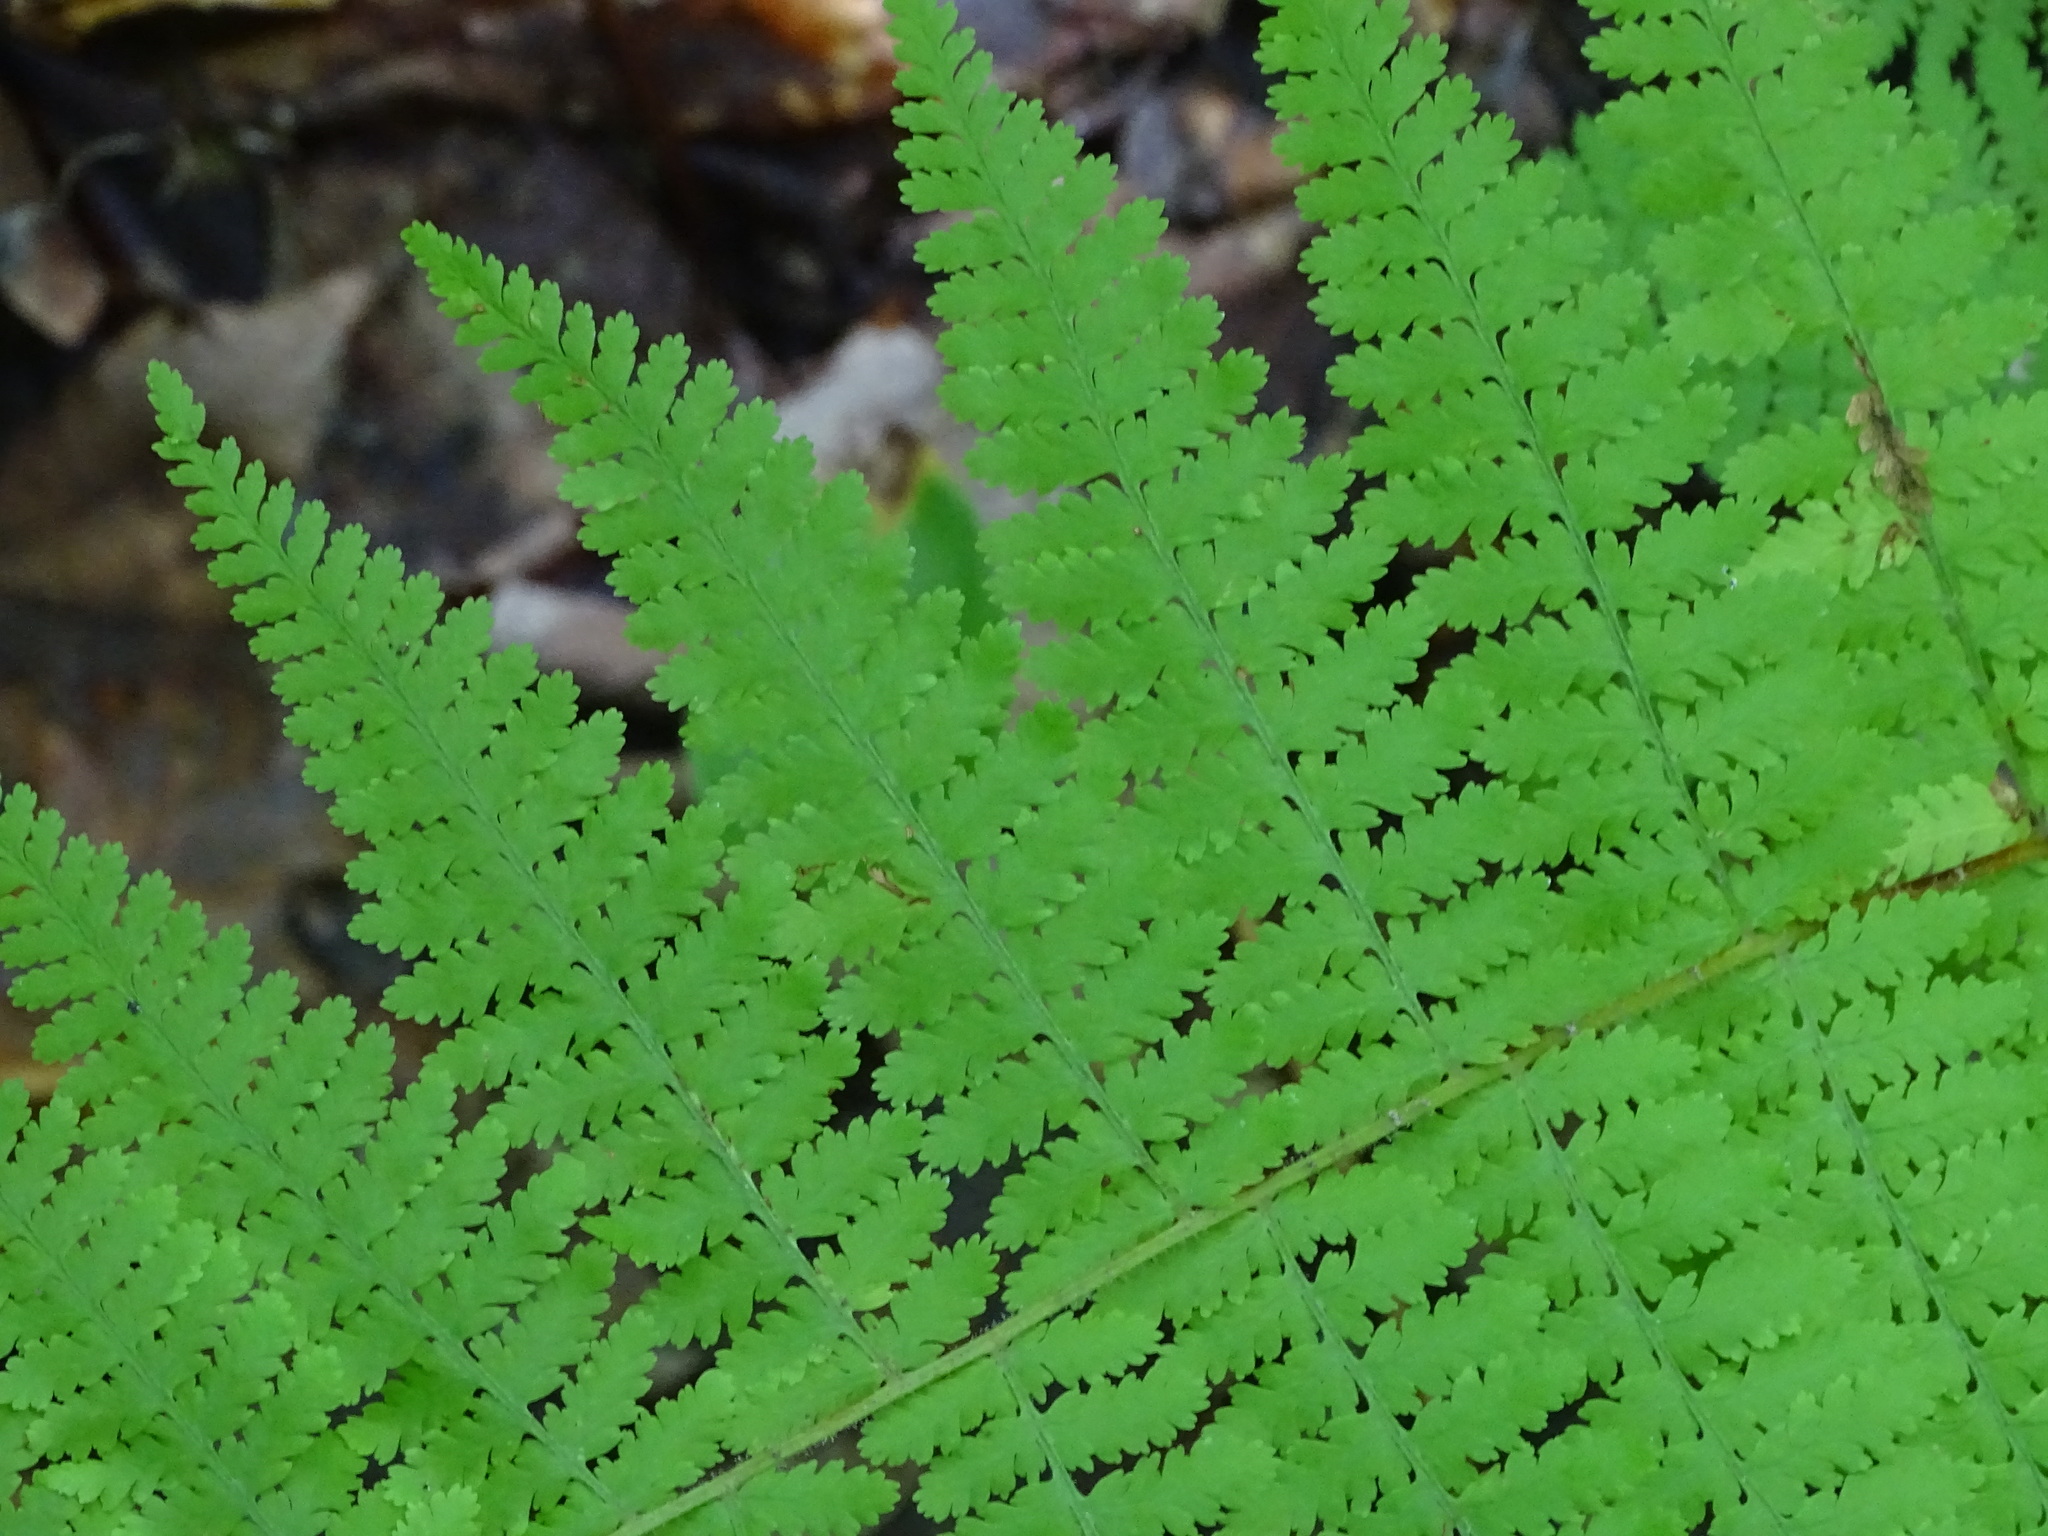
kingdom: Plantae
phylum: Tracheophyta
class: Polypodiopsida
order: Polypodiales
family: Dennstaedtiaceae
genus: Sitobolium
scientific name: Sitobolium punctilobum
